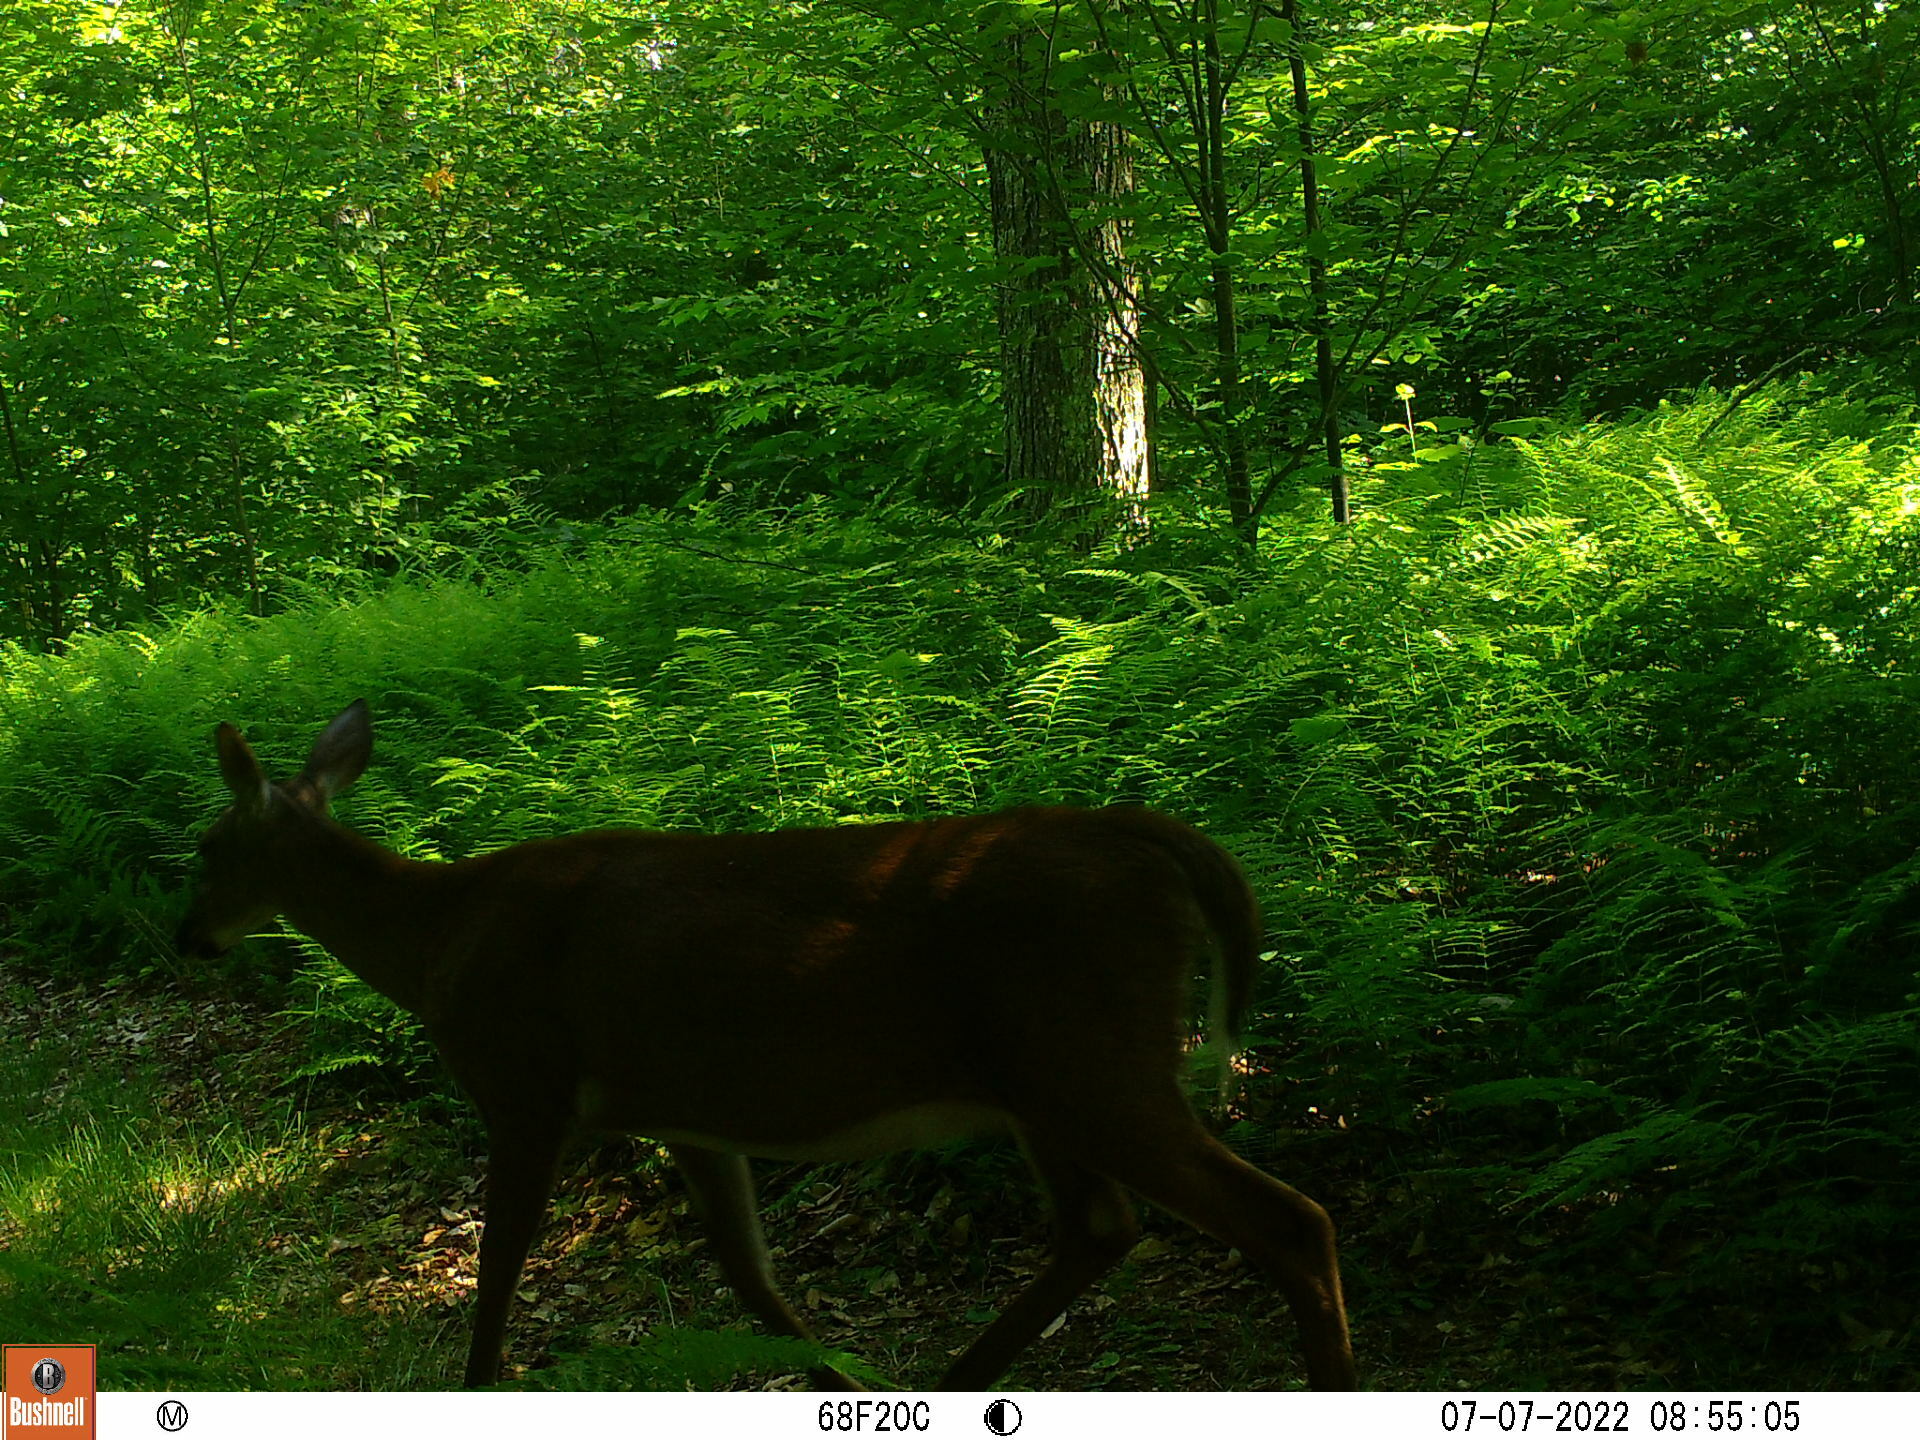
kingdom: Animalia
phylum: Chordata
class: Mammalia
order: Artiodactyla
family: Cervidae
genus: Odocoileus
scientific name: Odocoileus virginianus
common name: White-tailed deer
